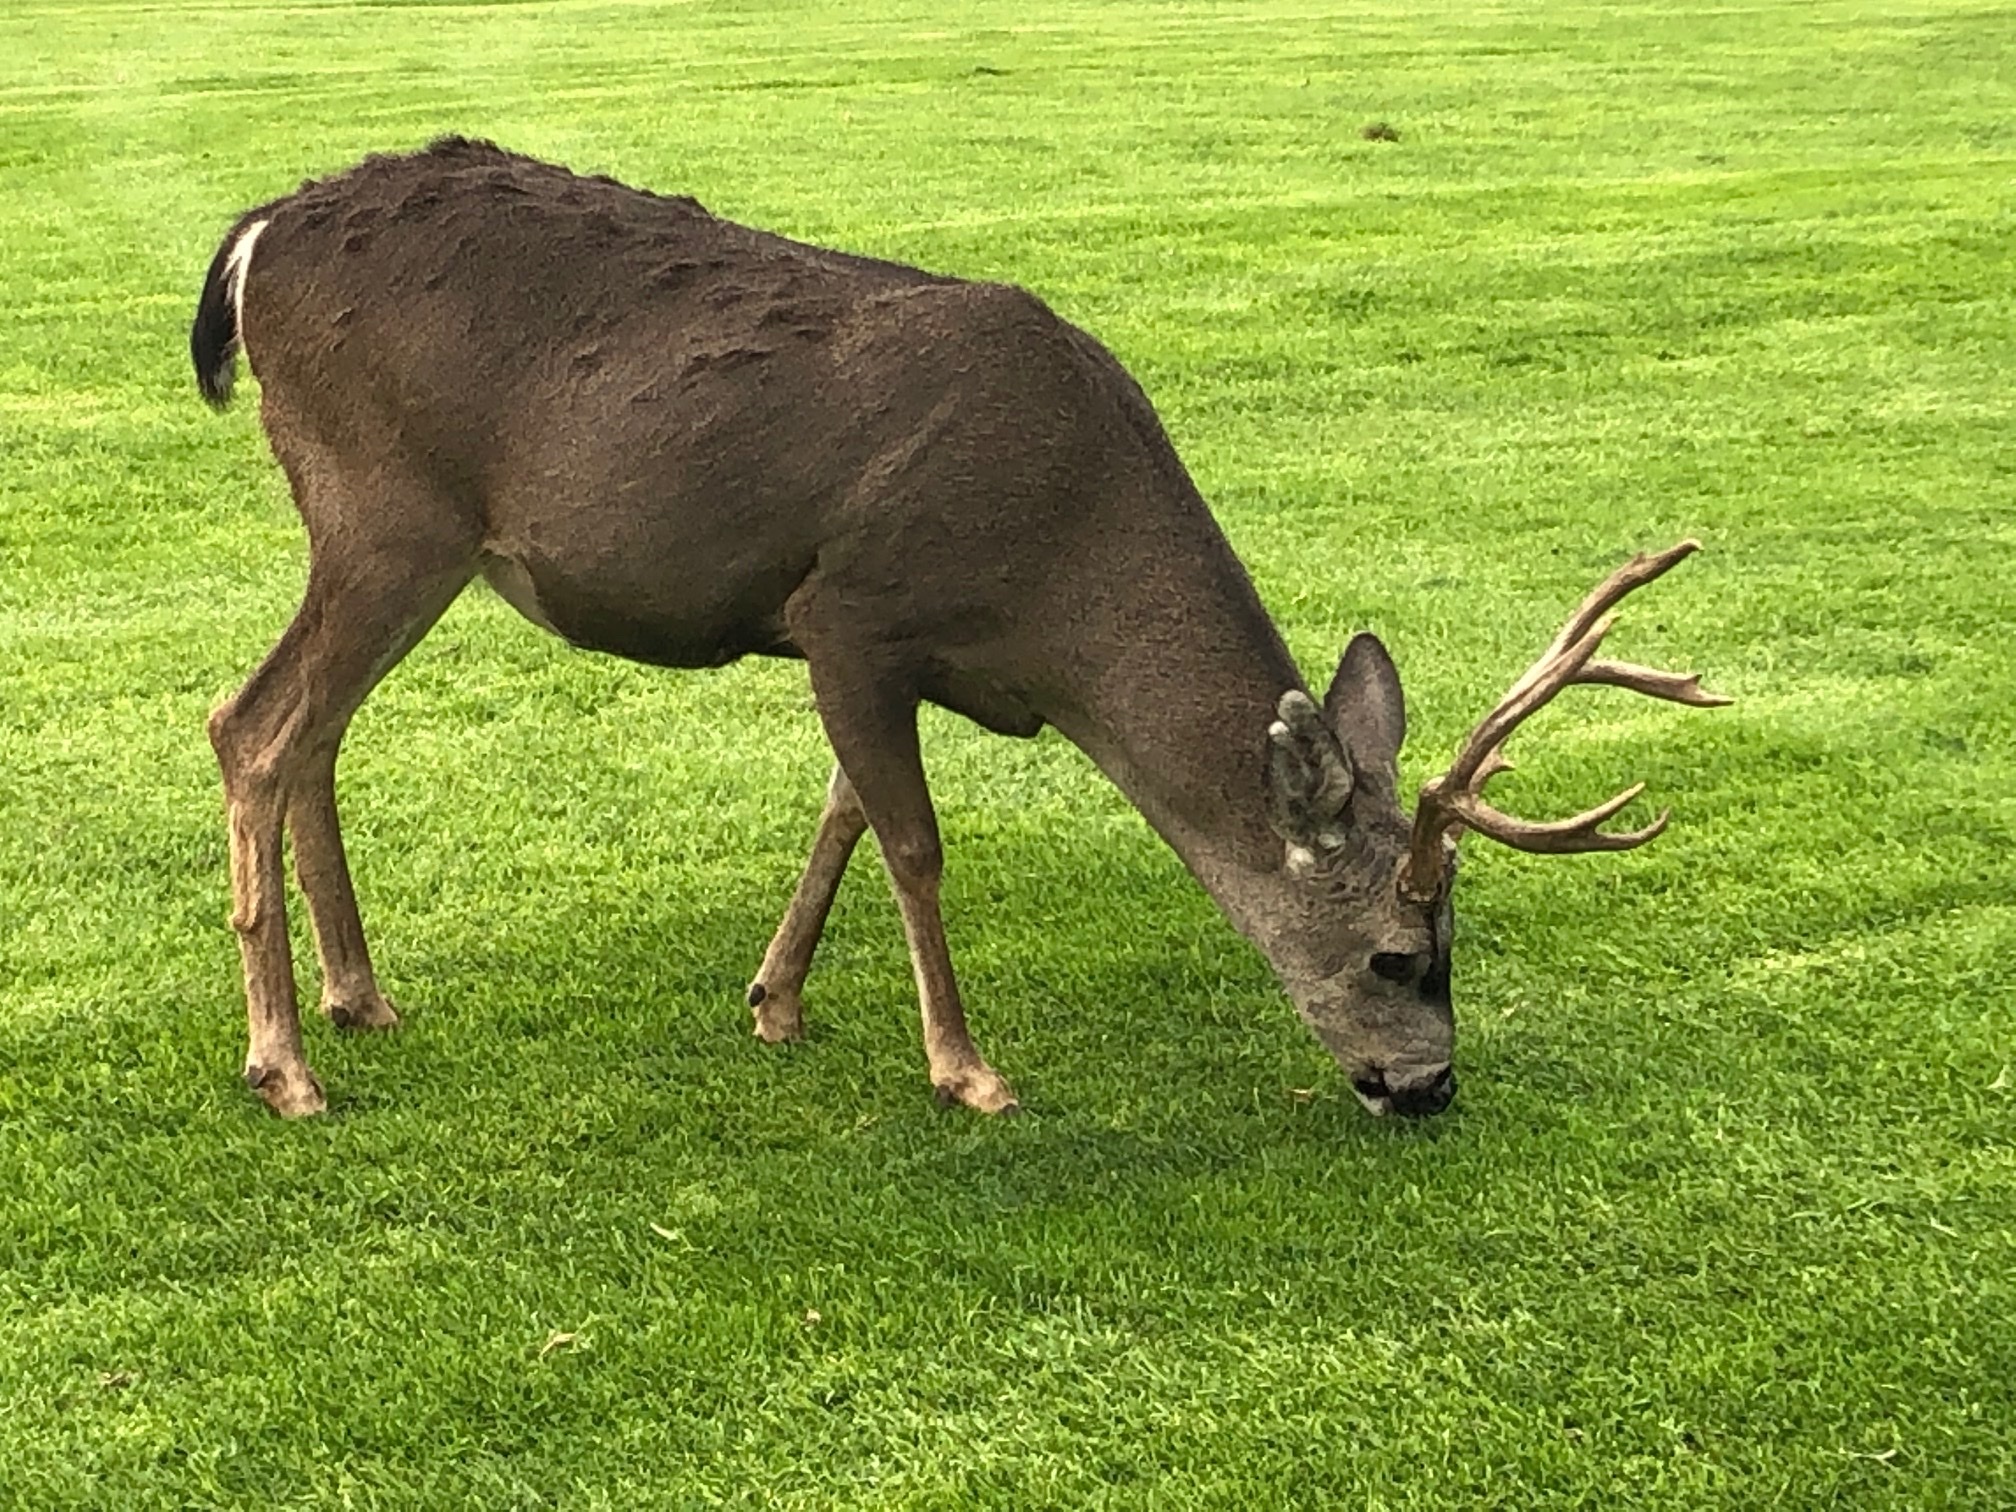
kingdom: Animalia
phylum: Chordata
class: Mammalia
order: Artiodactyla
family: Cervidae
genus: Odocoileus
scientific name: Odocoileus hemionus
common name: Mule deer
